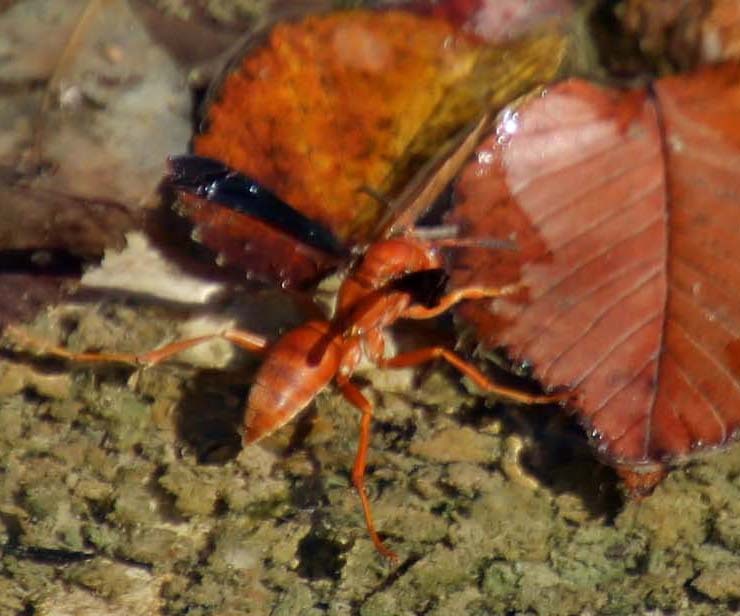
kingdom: Animalia
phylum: Arthropoda
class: Insecta
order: Hymenoptera
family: Vespidae
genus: Fuscopolistes
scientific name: Fuscopolistes
